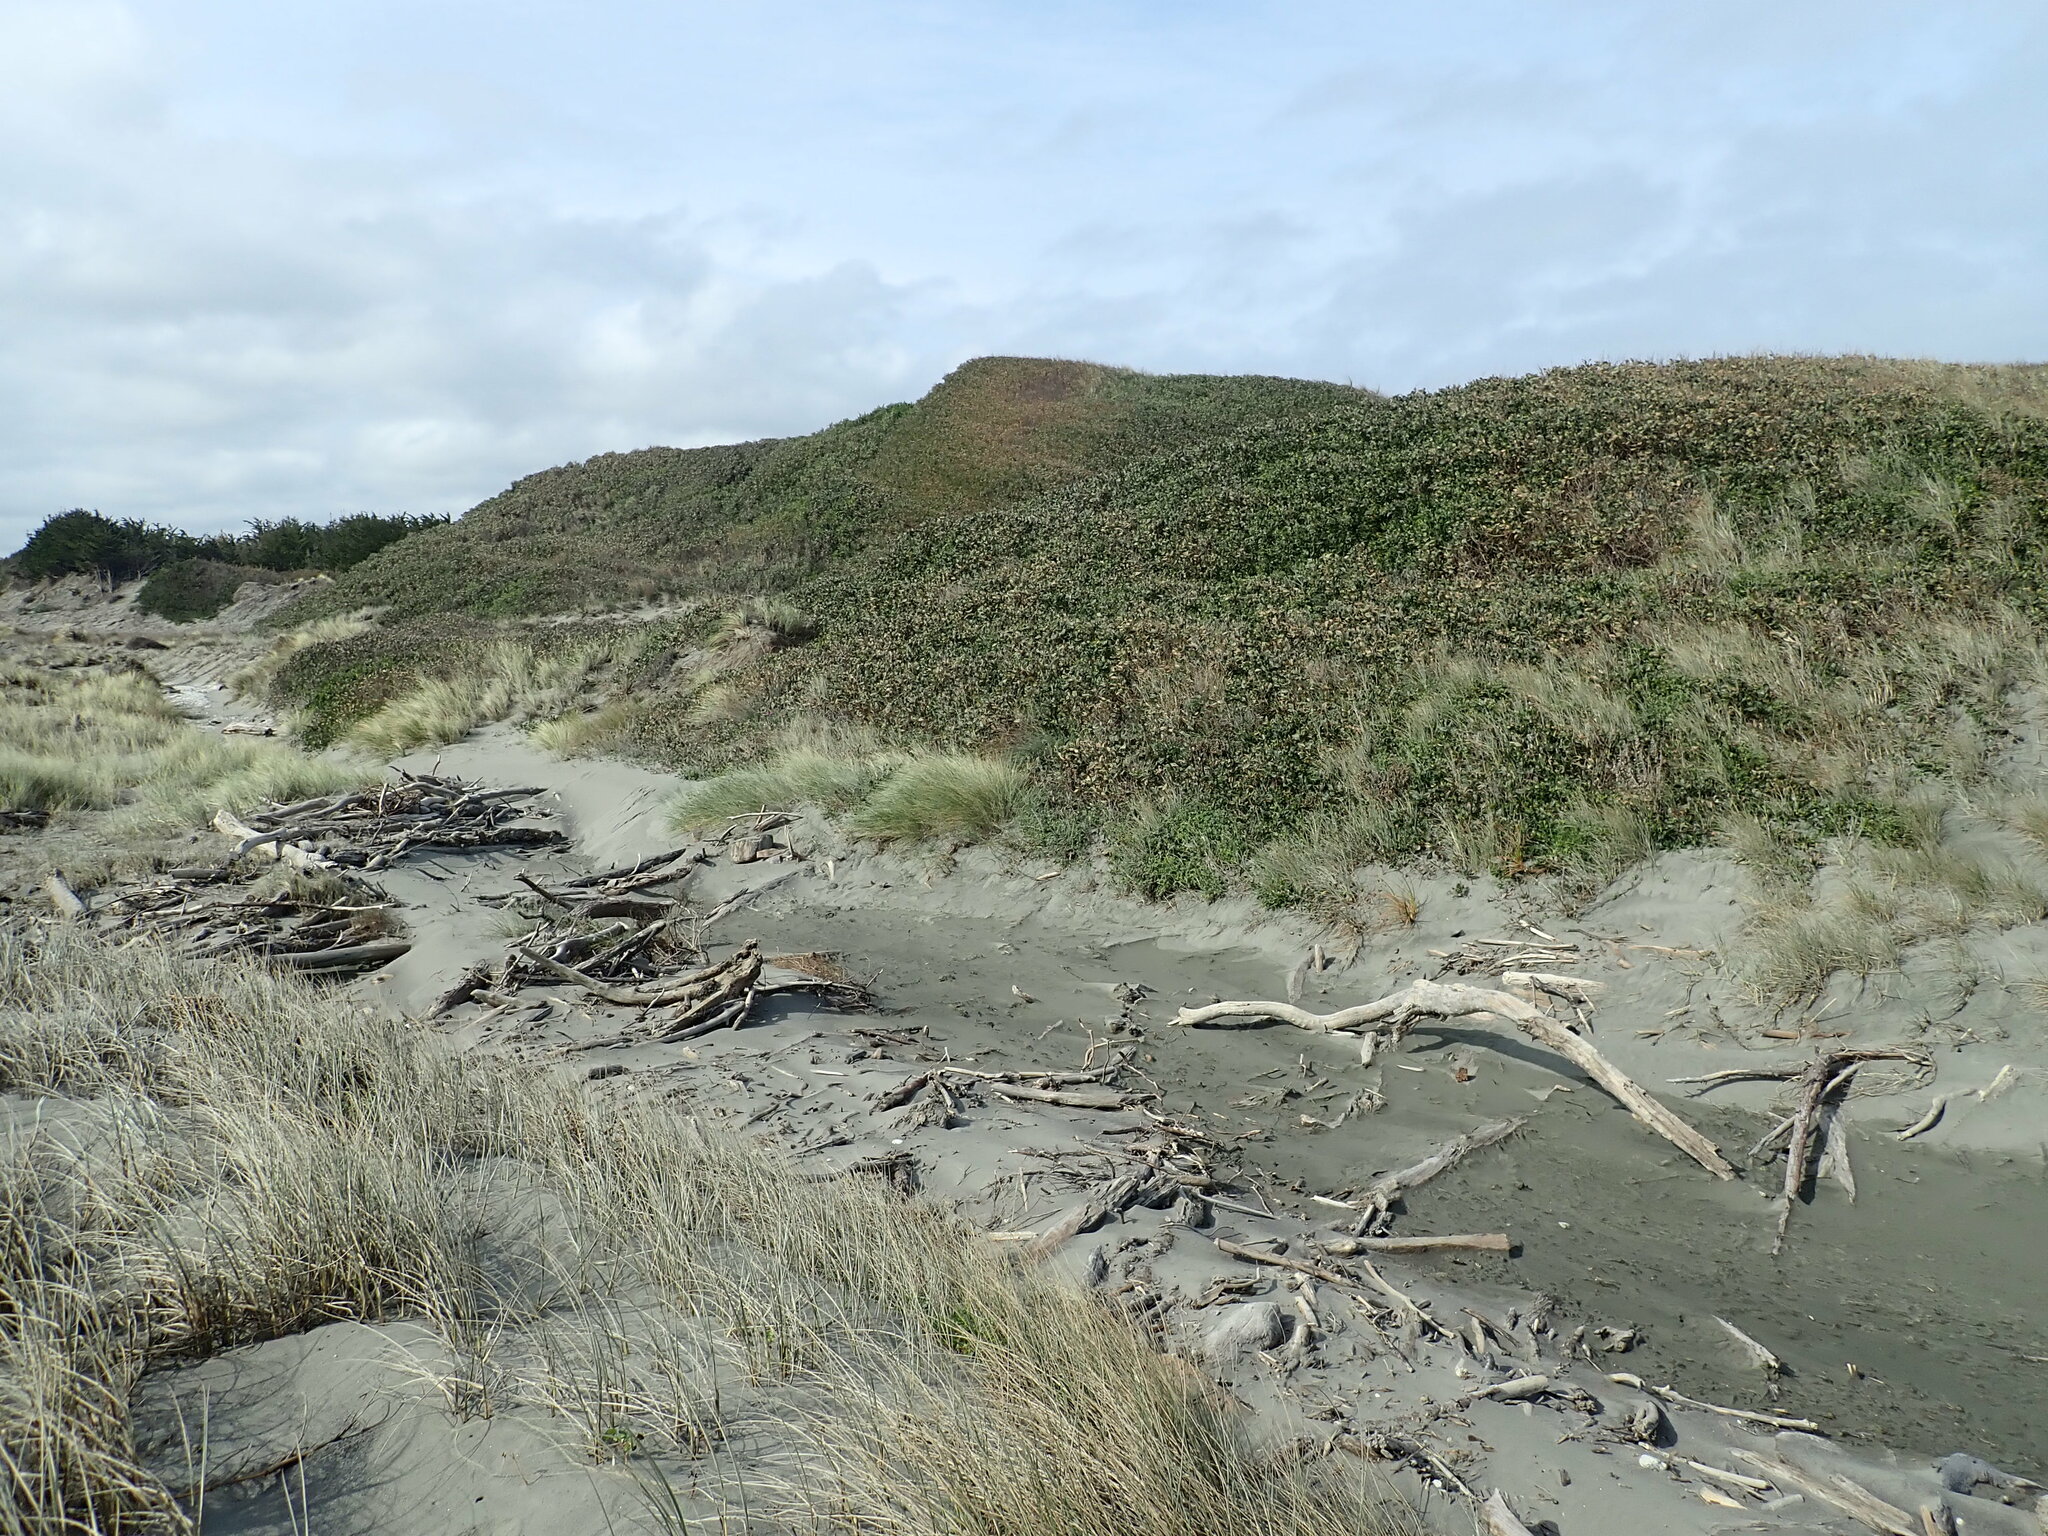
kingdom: Plantae
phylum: Tracheophyta
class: Magnoliopsida
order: Fabales
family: Fabaceae
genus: Acacia
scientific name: Acacia longifolia
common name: Sydney golden wattle
